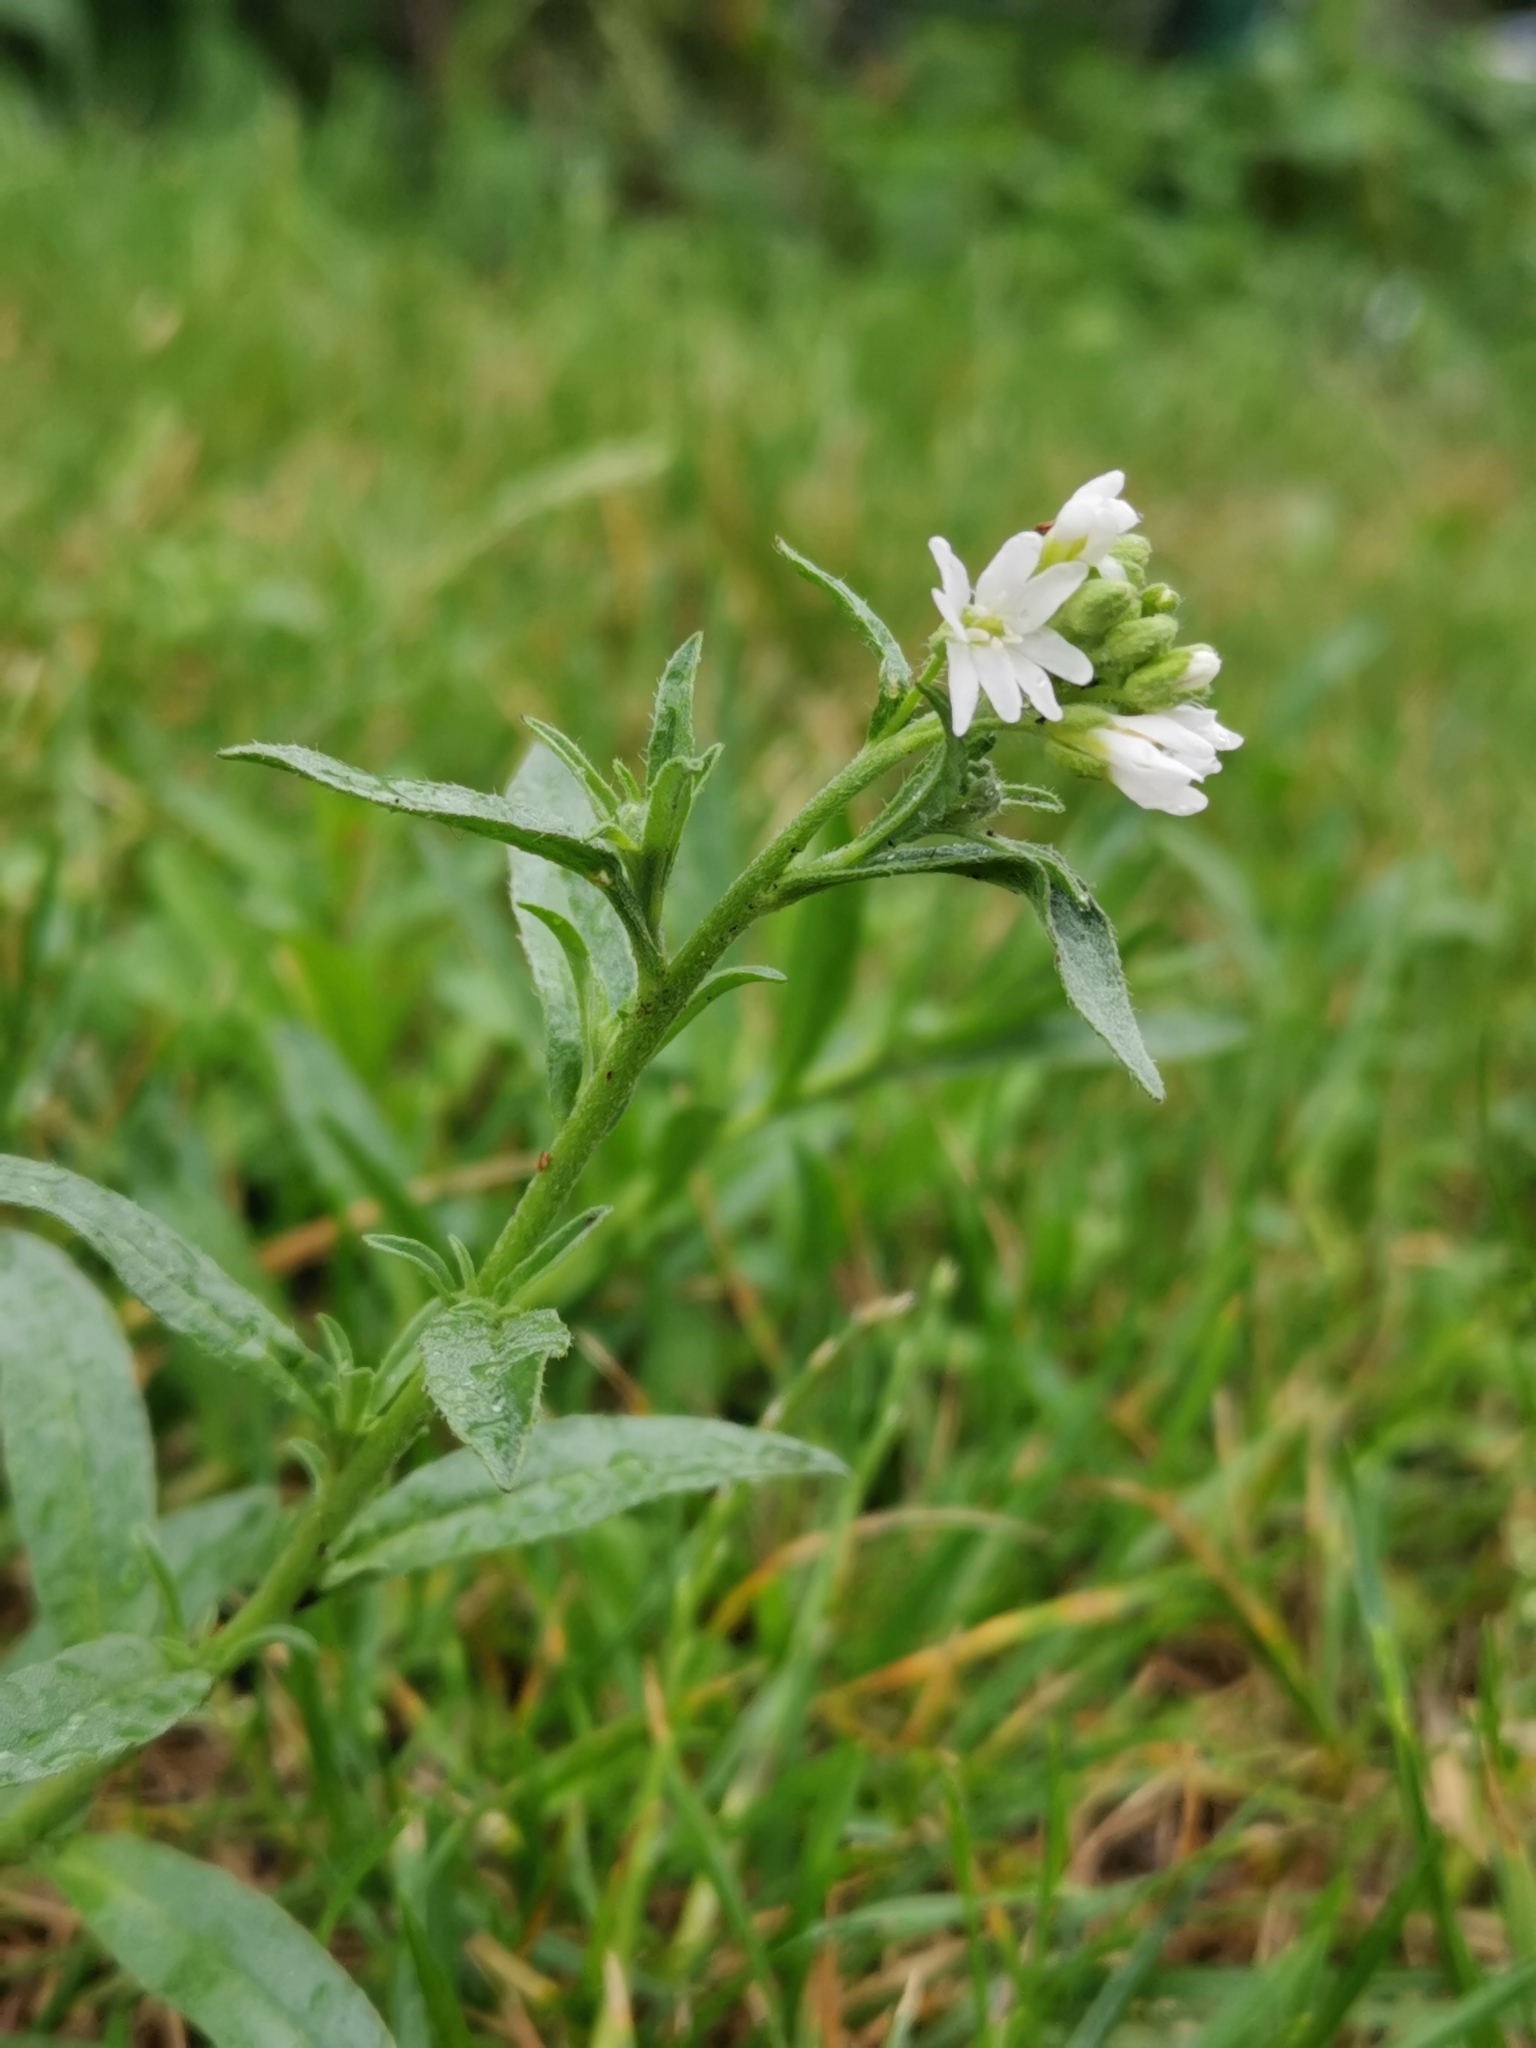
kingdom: Plantae
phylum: Tracheophyta
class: Magnoliopsida
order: Brassicales
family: Brassicaceae
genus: Berteroa
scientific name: Berteroa incana
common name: Hoary alison
